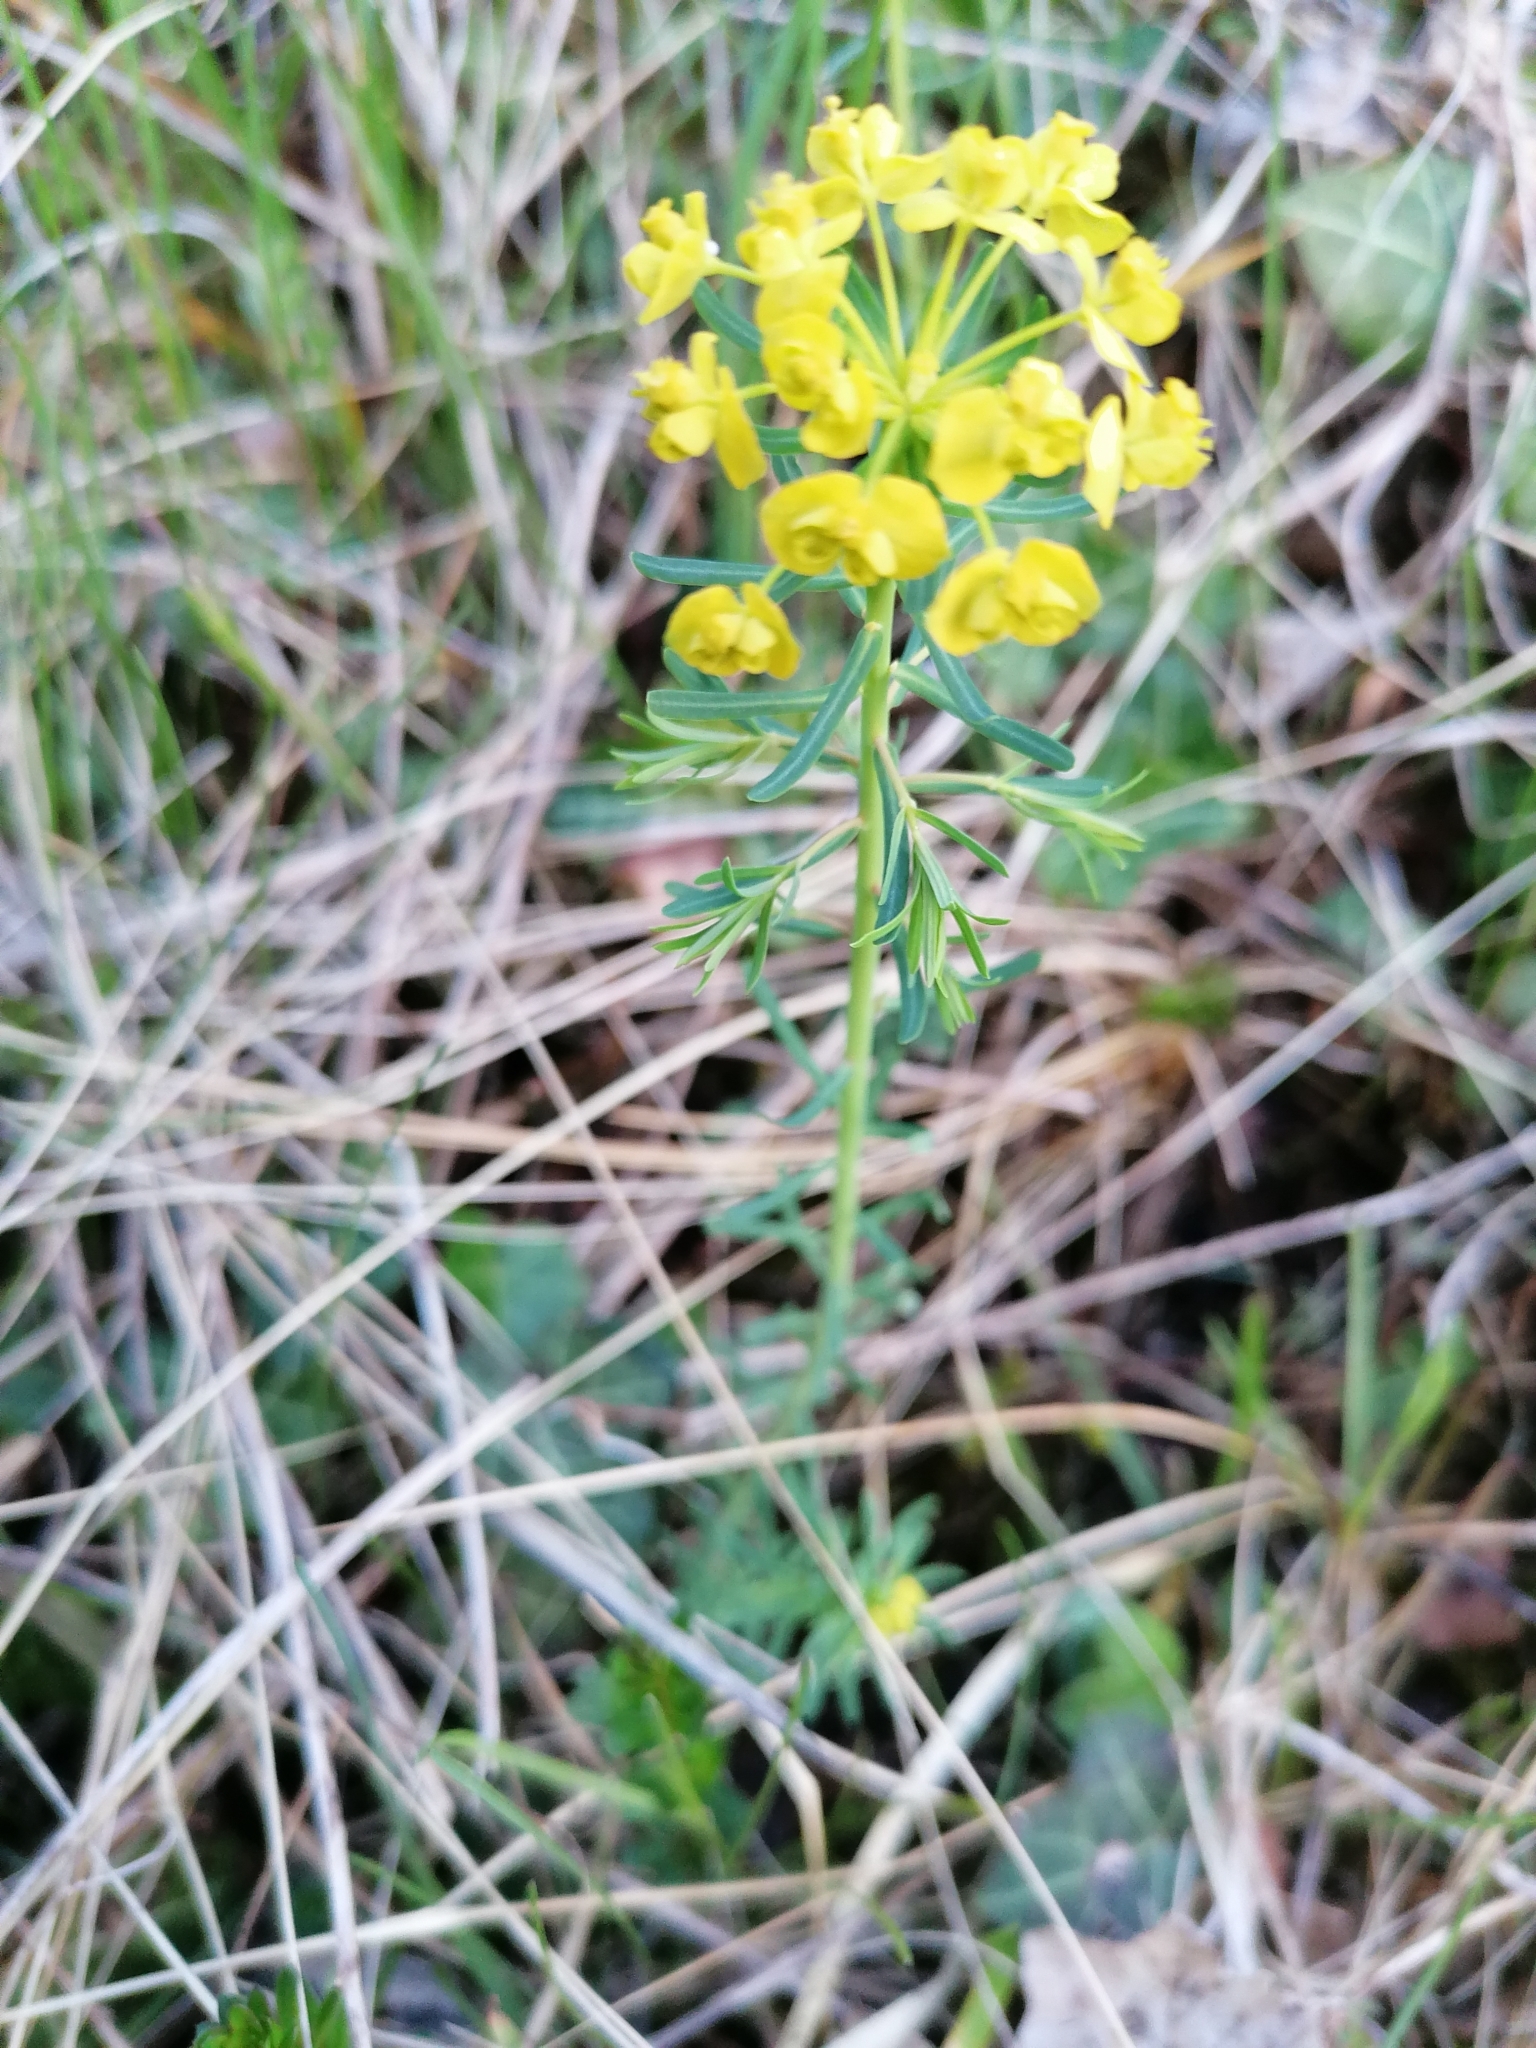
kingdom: Plantae
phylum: Tracheophyta
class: Magnoliopsida
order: Malpighiales
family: Euphorbiaceae
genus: Euphorbia
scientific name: Euphorbia cyparissias
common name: Cypress spurge
